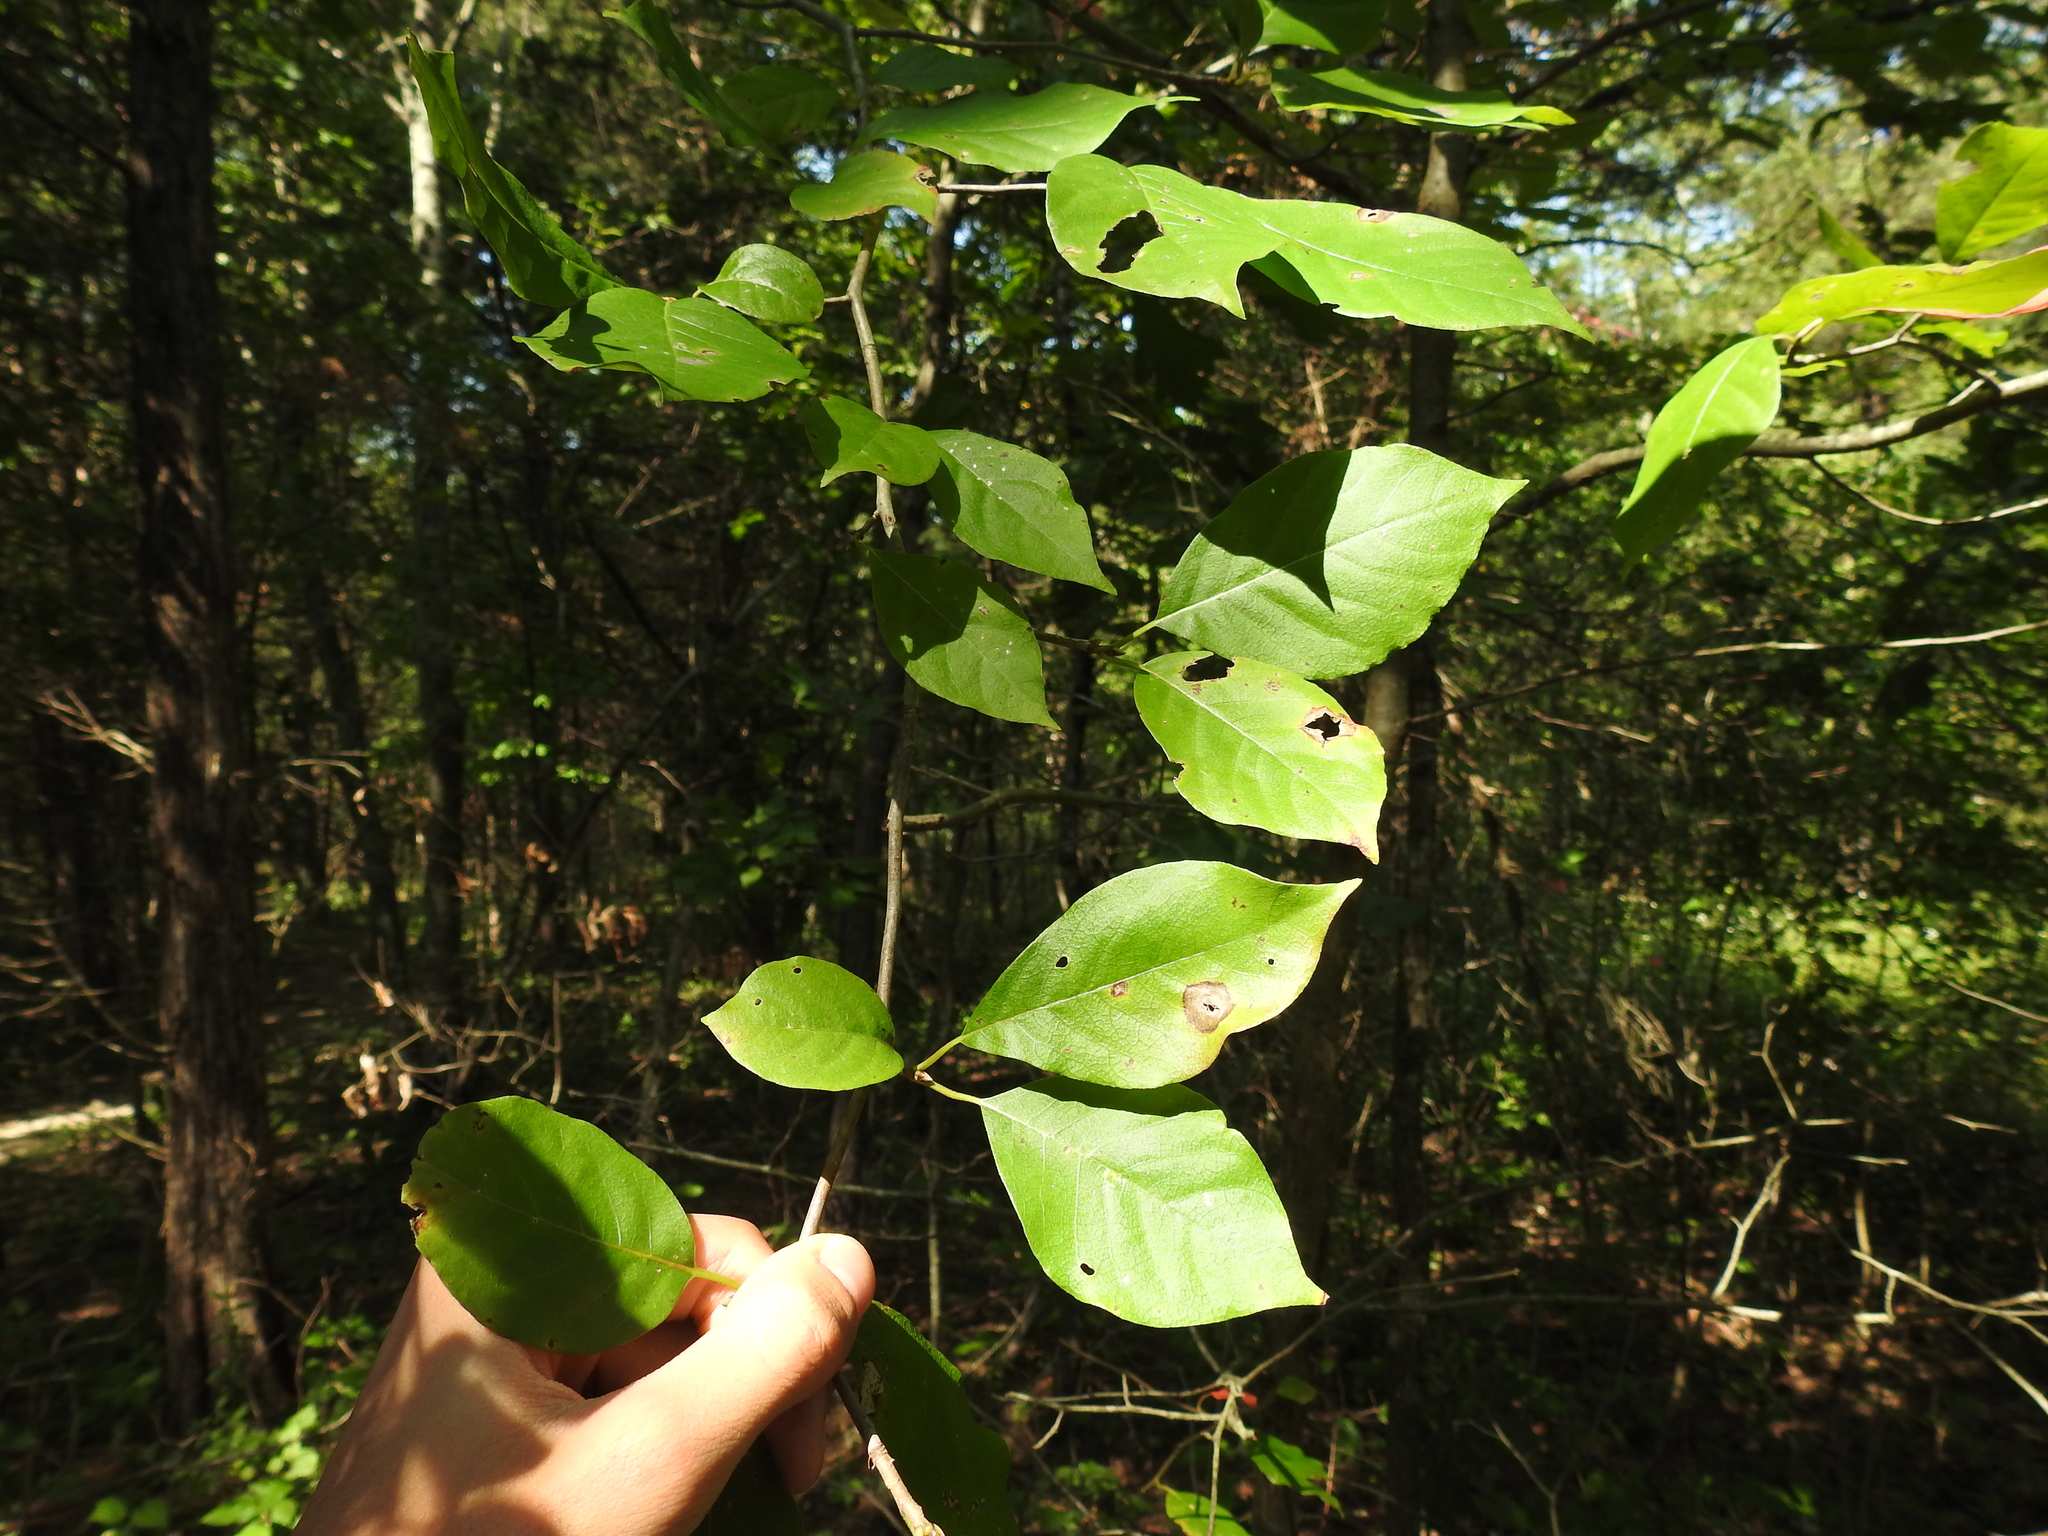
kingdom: Plantae
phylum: Tracheophyta
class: Magnoliopsida
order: Cornales
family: Nyssaceae
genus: Nyssa
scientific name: Nyssa sylvatica
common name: Black tupelo
